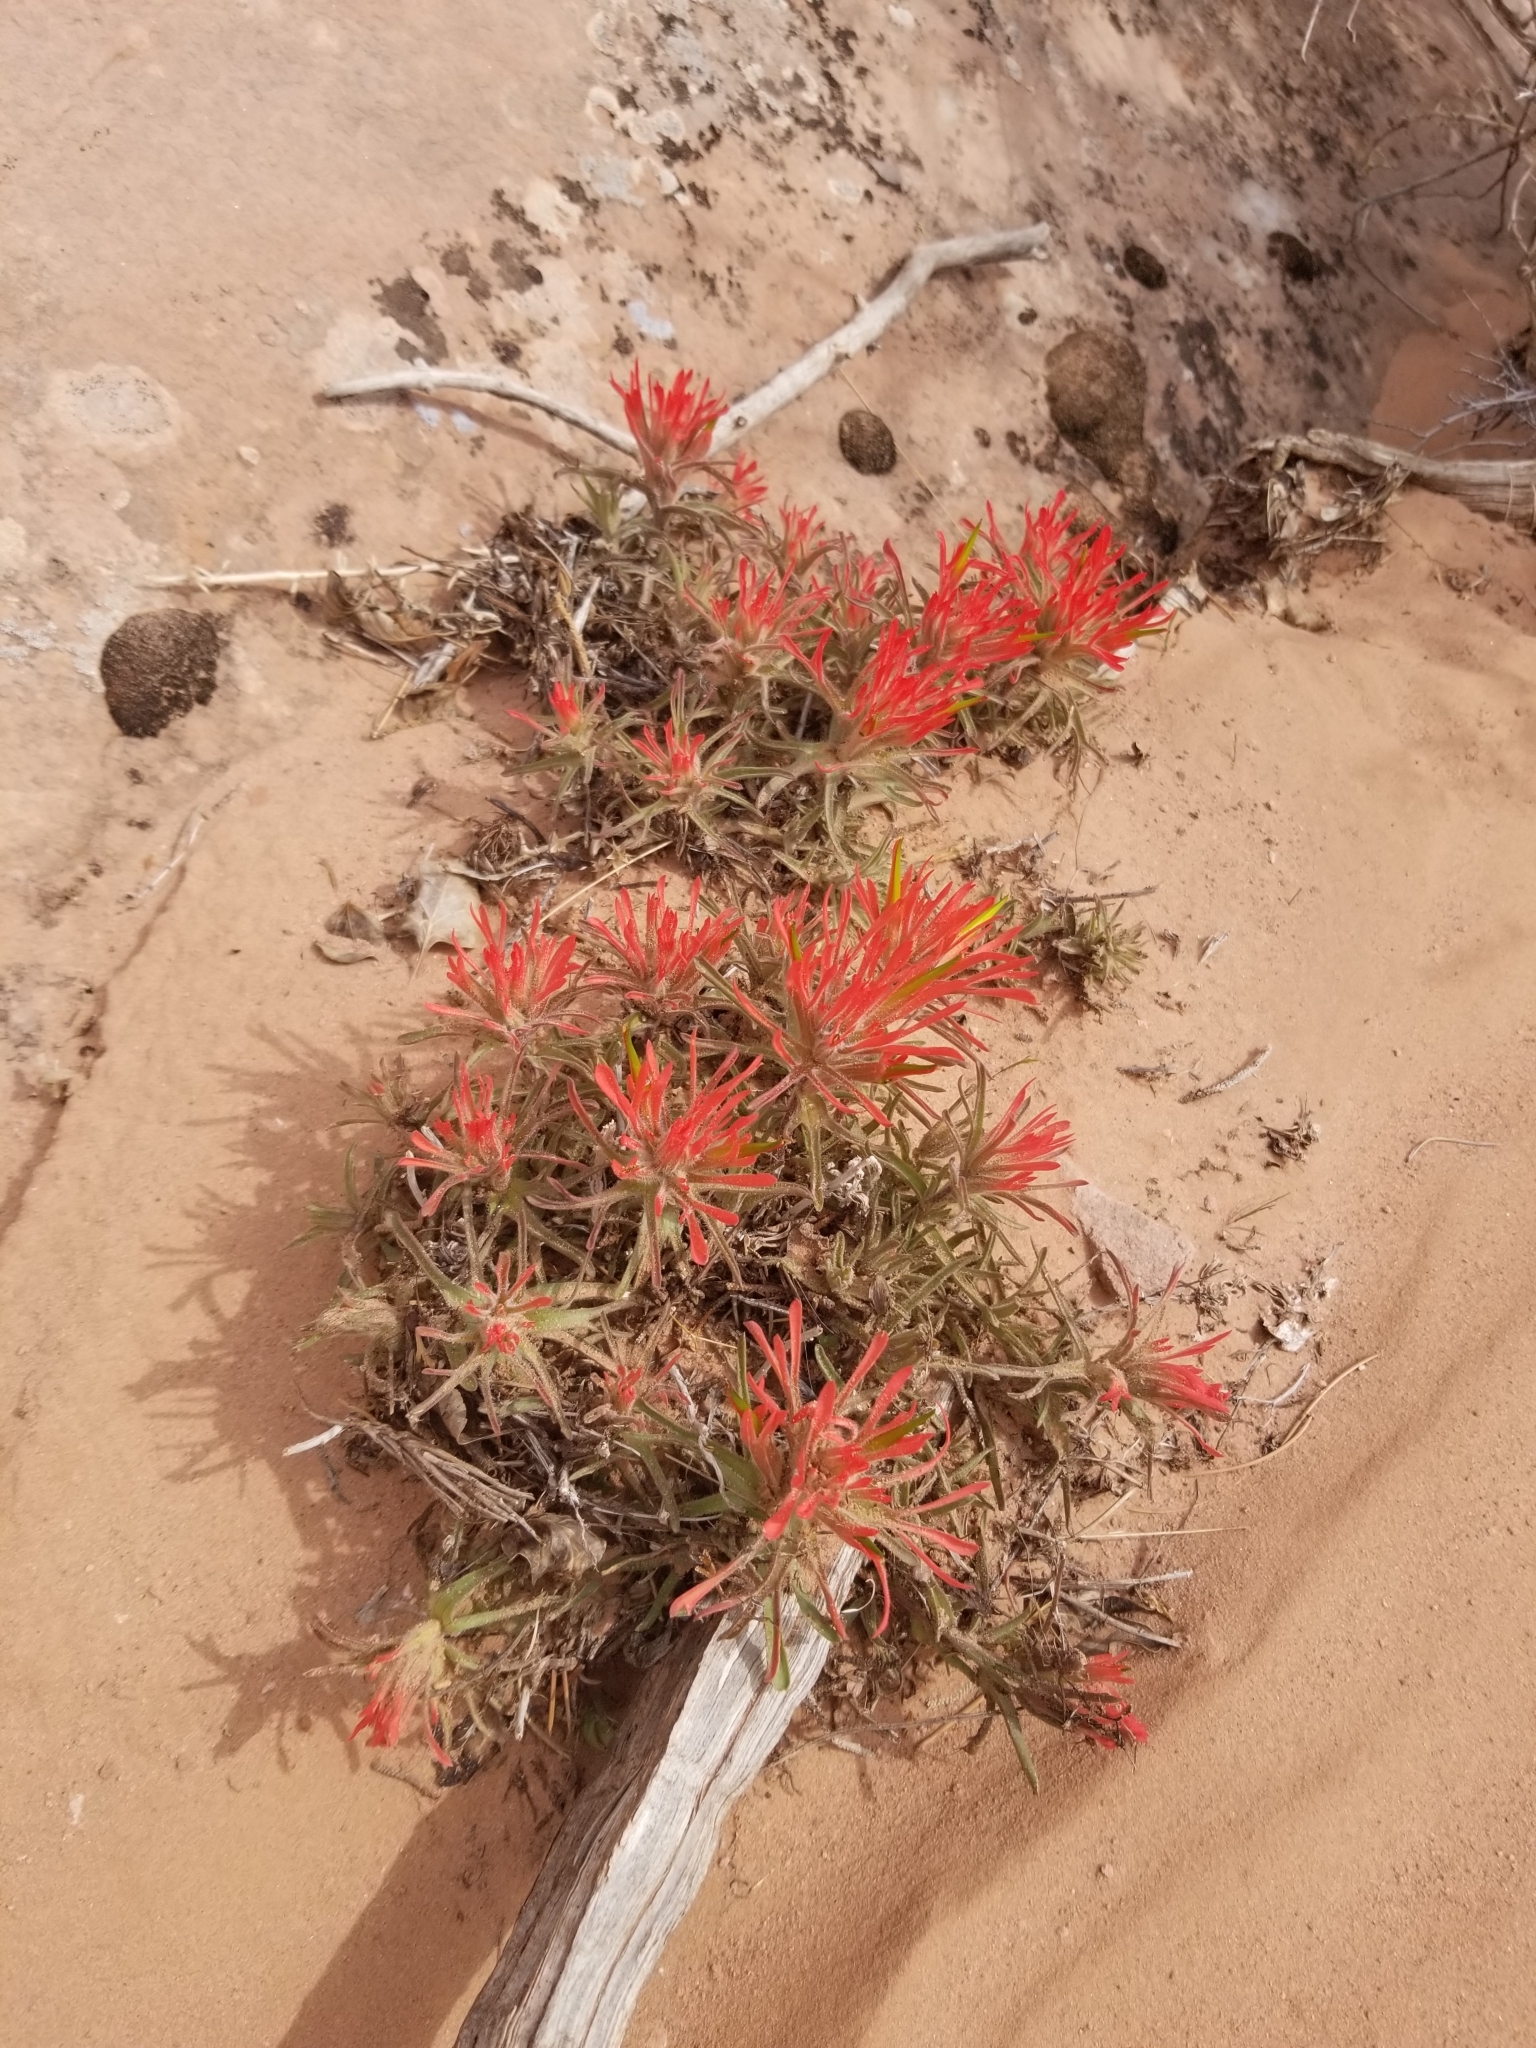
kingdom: Plantae
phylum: Tracheophyta
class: Magnoliopsida
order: Lamiales
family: Orobanchaceae
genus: Castilleja
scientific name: Castilleja scabrida
